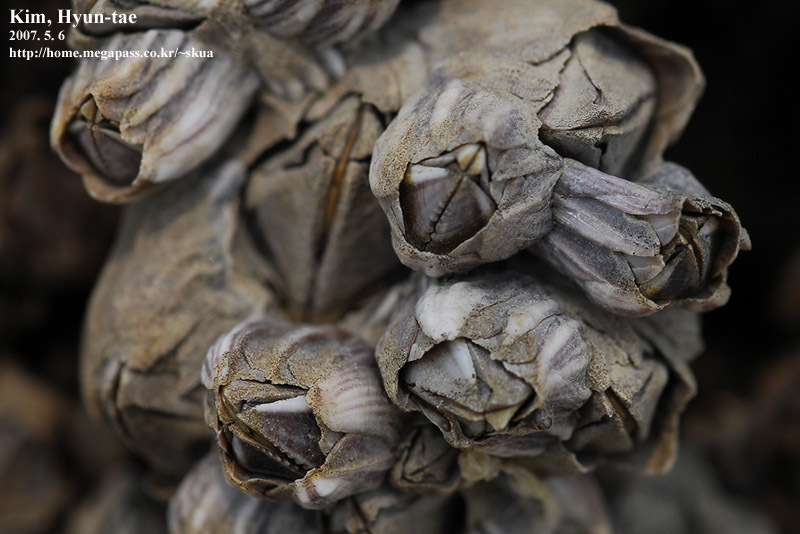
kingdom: Animalia
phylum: Arthropoda
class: Maxillopoda
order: Sessilia
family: Balanidae
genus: Fistulobalanus
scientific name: Fistulobalanus albicostatus
